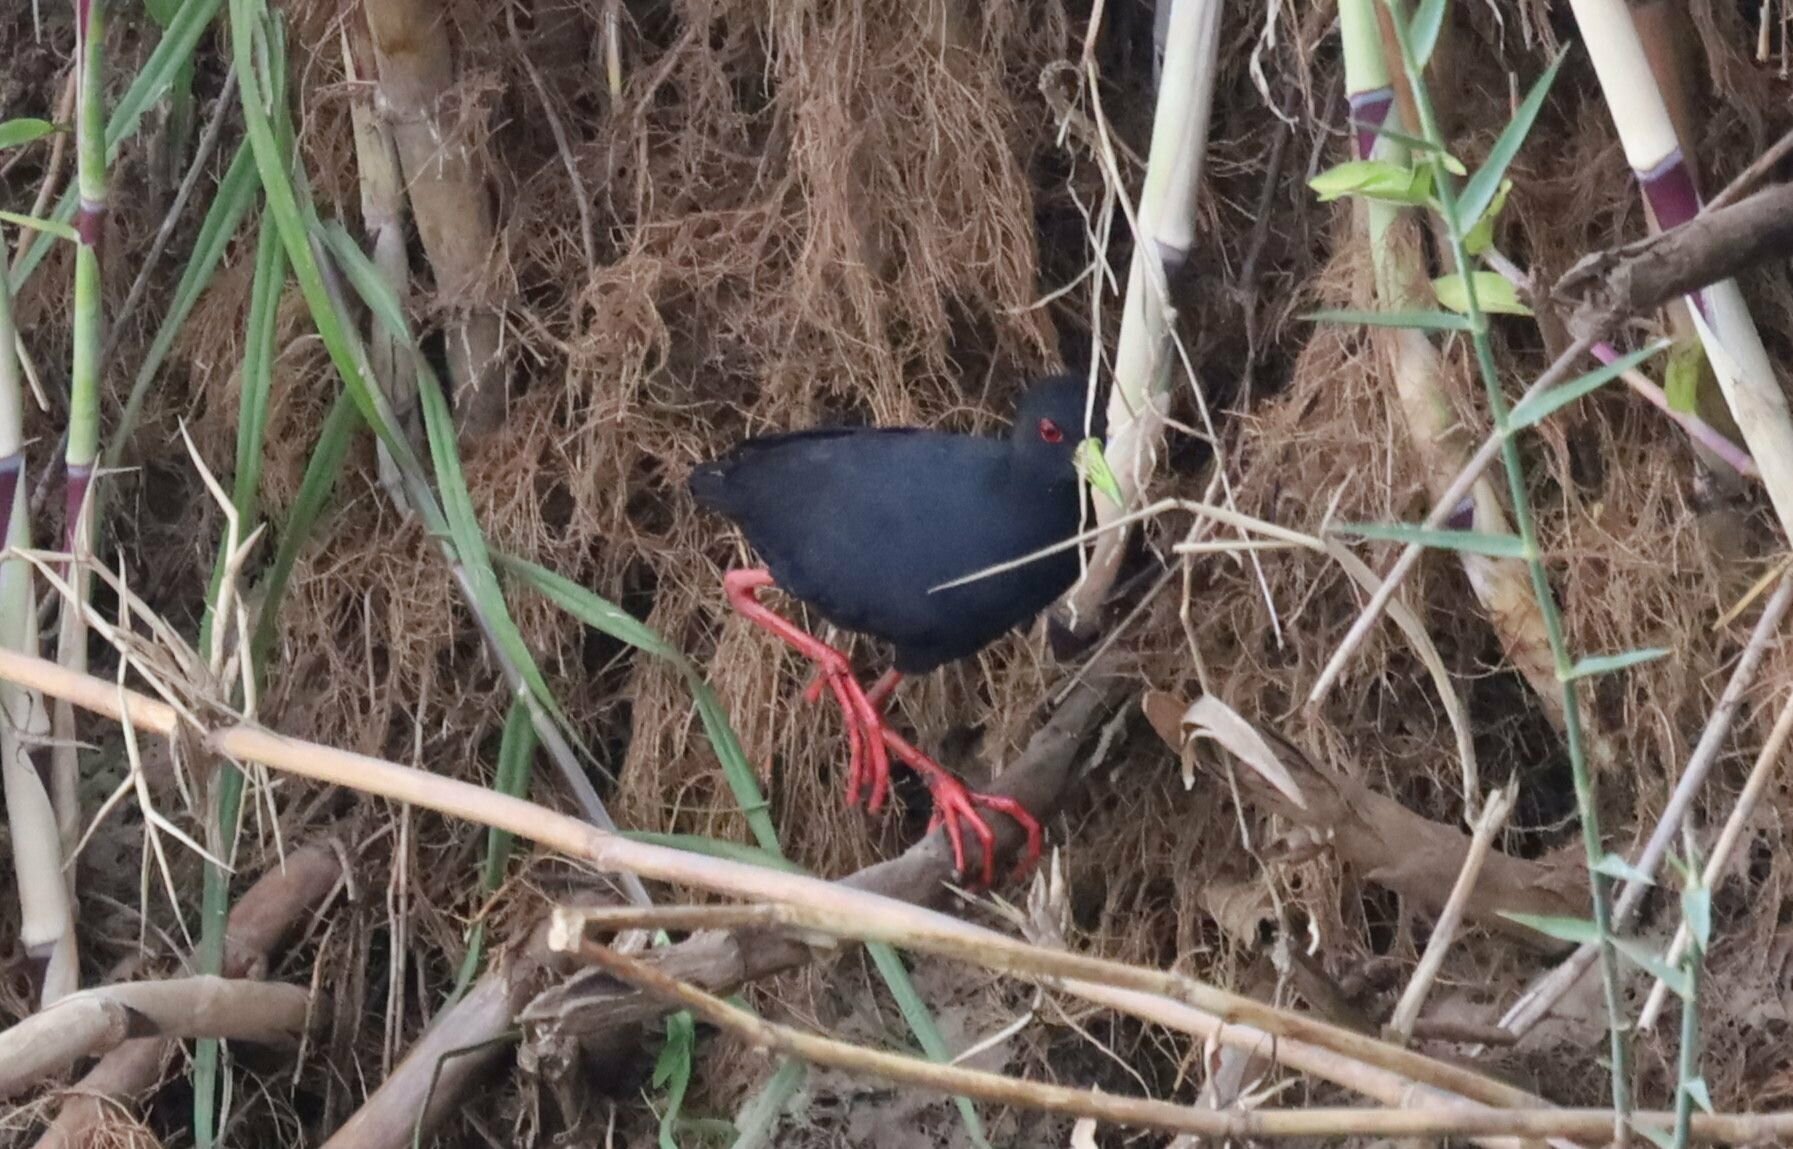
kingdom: Animalia
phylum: Chordata
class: Aves
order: Gruiformes
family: Rallidae
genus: Amaurornis
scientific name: Amaurornis flavirostra
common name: Black crake
